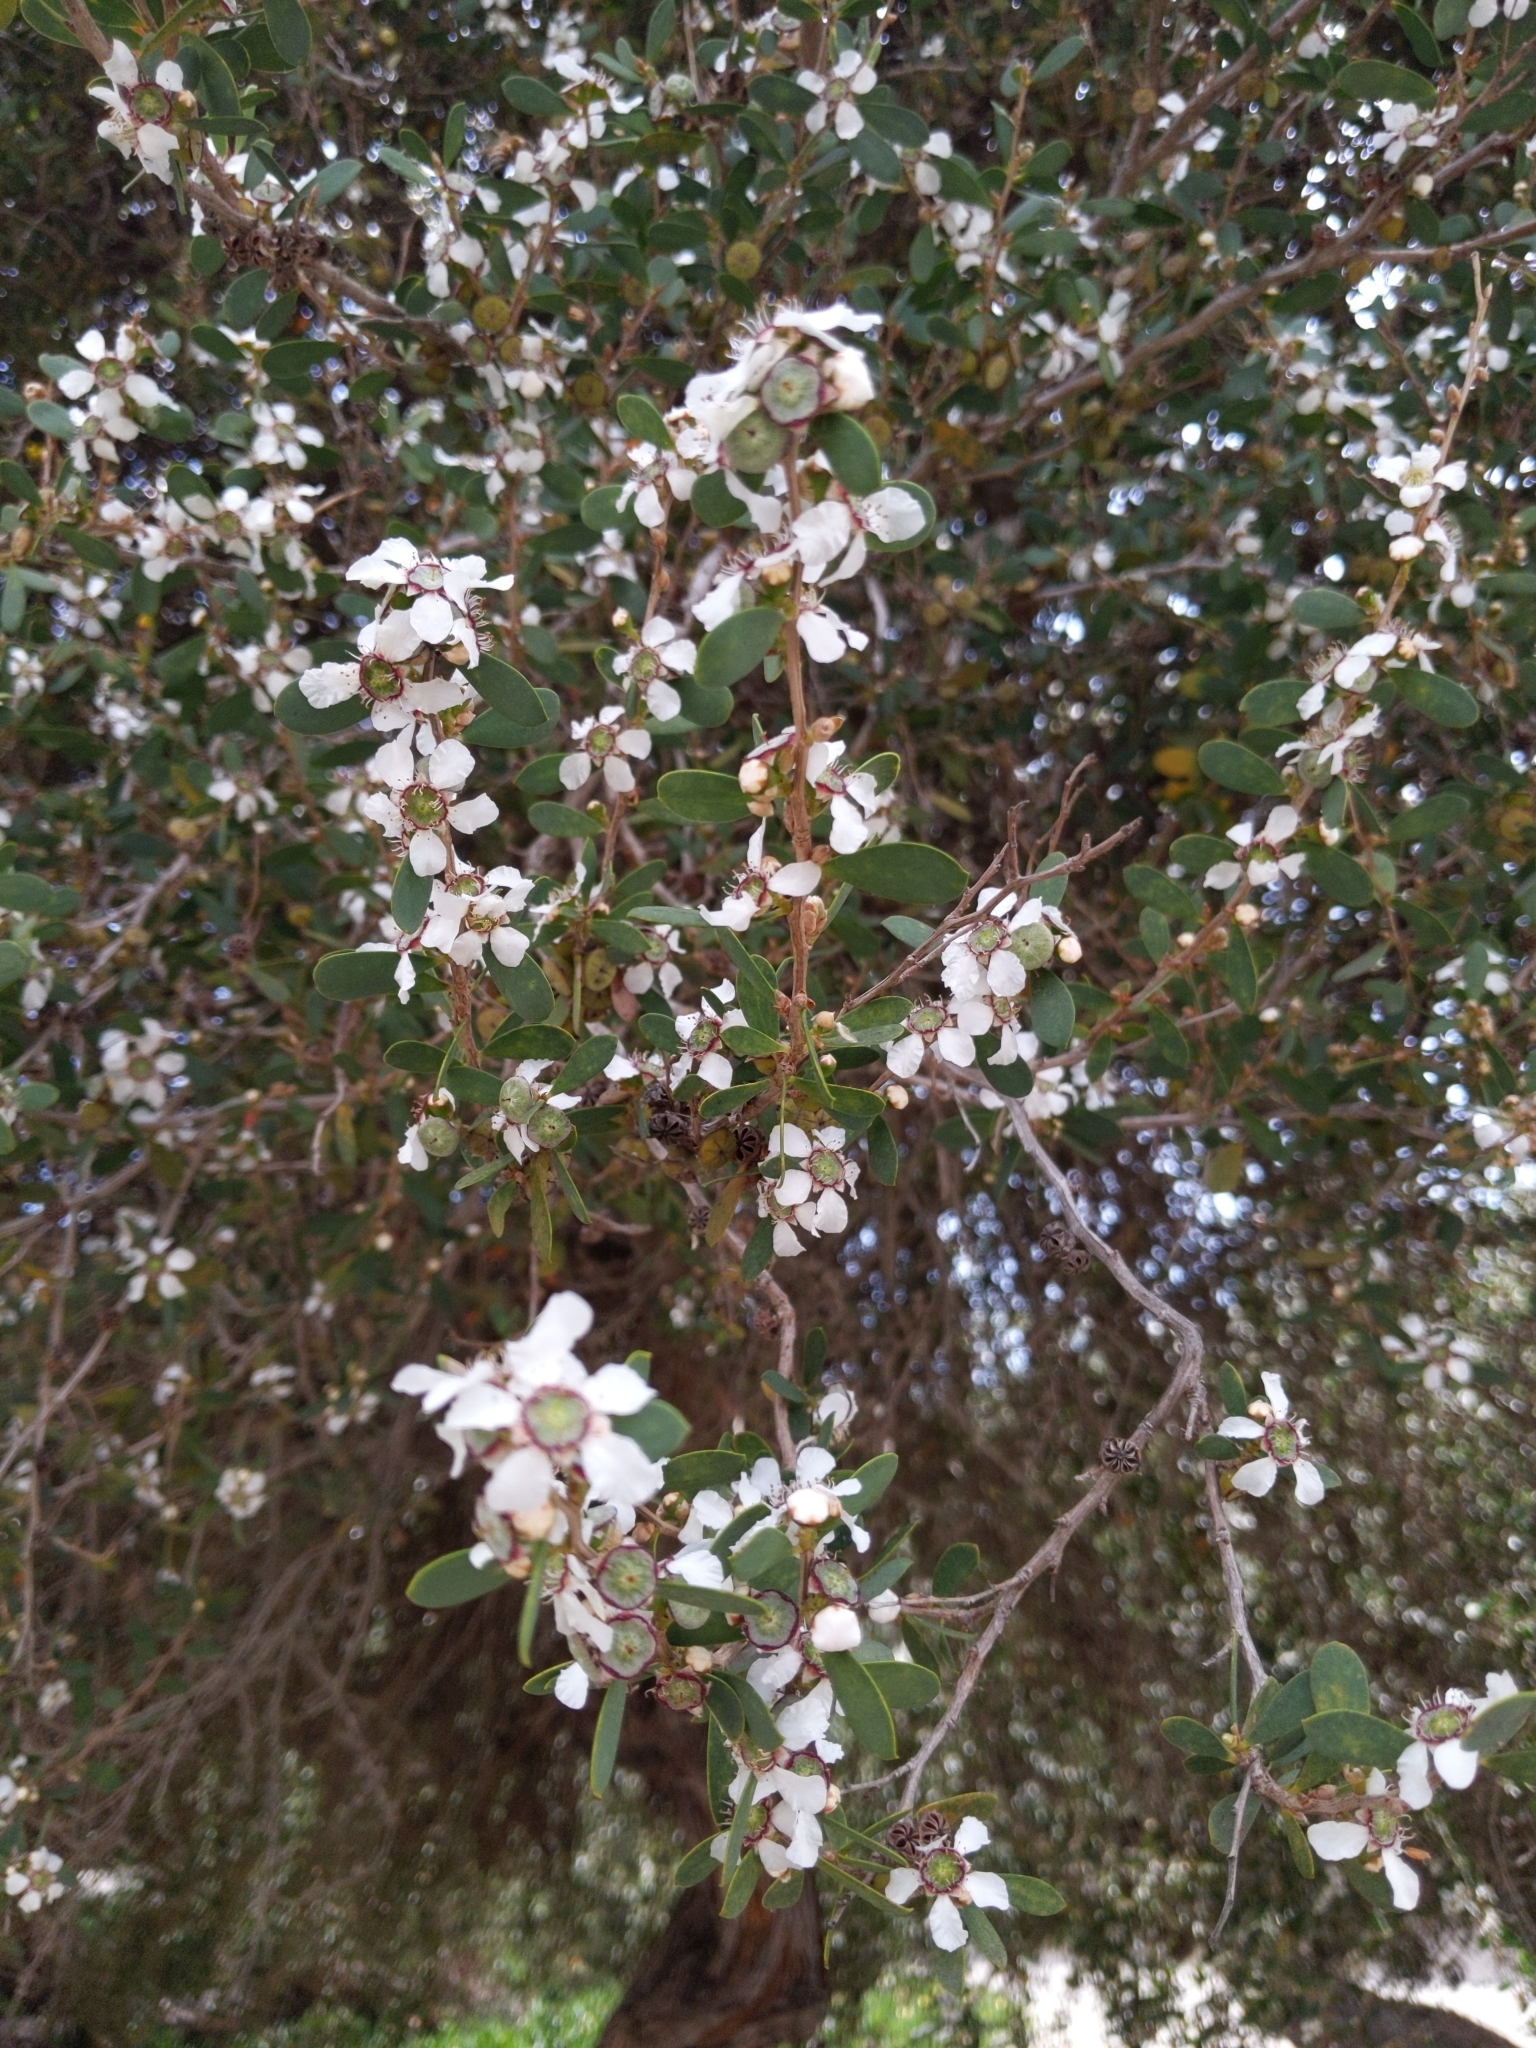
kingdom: Plantae
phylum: Tracheophyta
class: Magnoliopsida
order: Myrtales
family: Myrtaceae
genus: Leptospermum
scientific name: Leptospermum laevigatum
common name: Australian teatree
